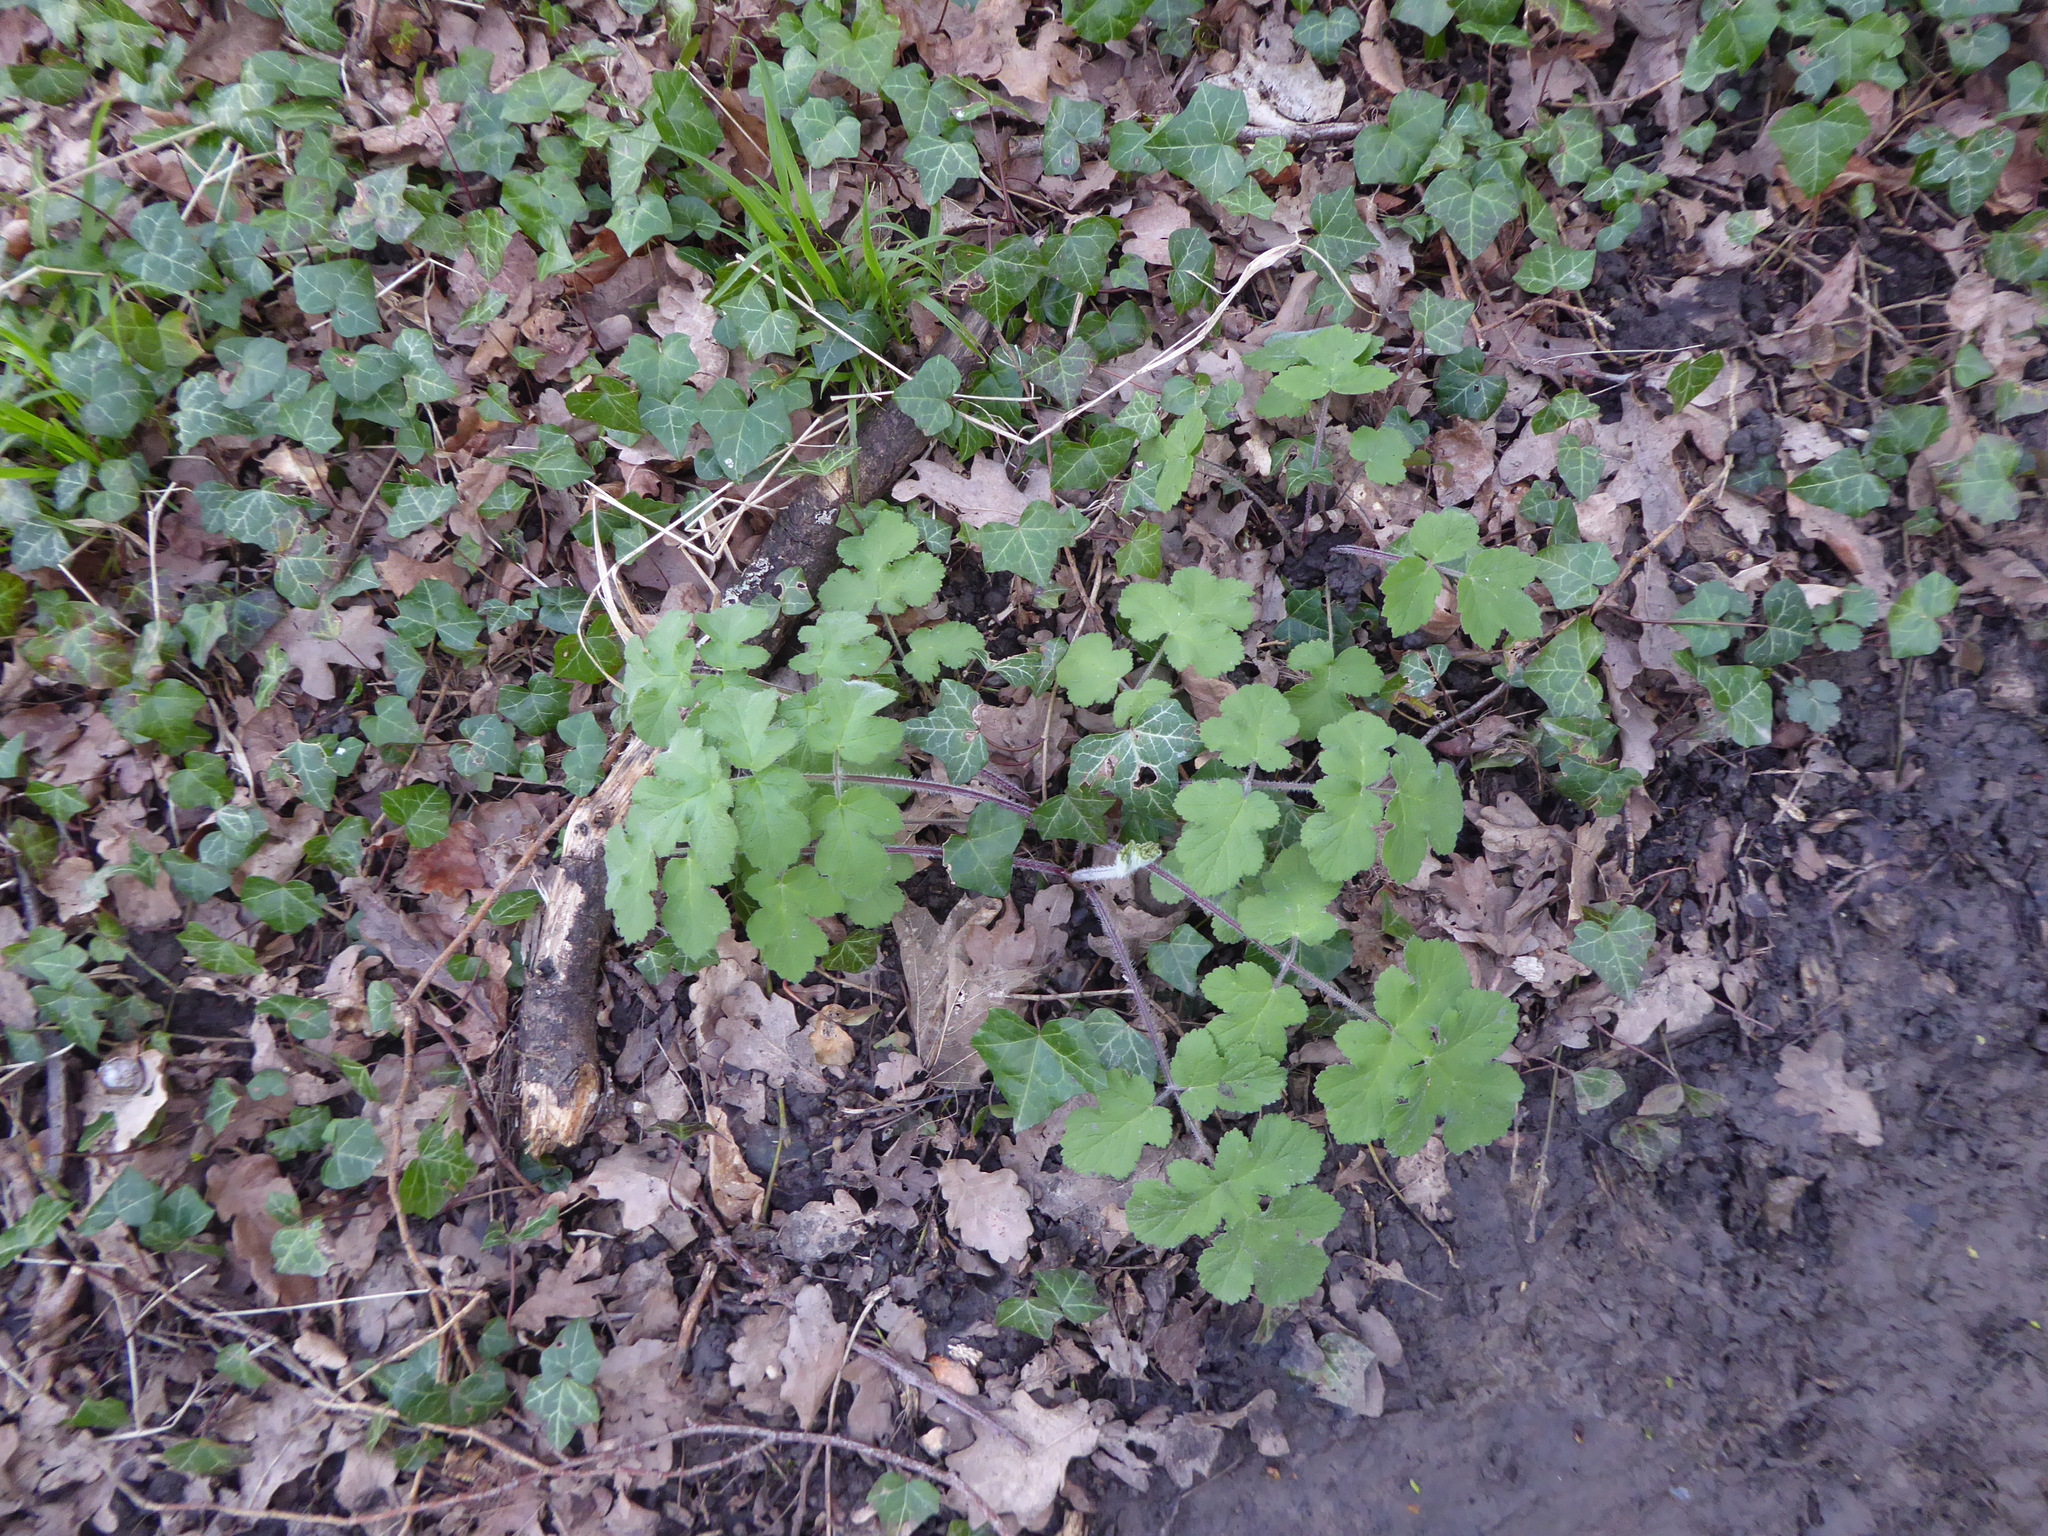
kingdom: Plantae
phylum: Tracheophyta
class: Magnoliopsida
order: Apiales
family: Apiaceae
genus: Heracleum
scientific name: Heracleum sphondylium
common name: Hogweed
